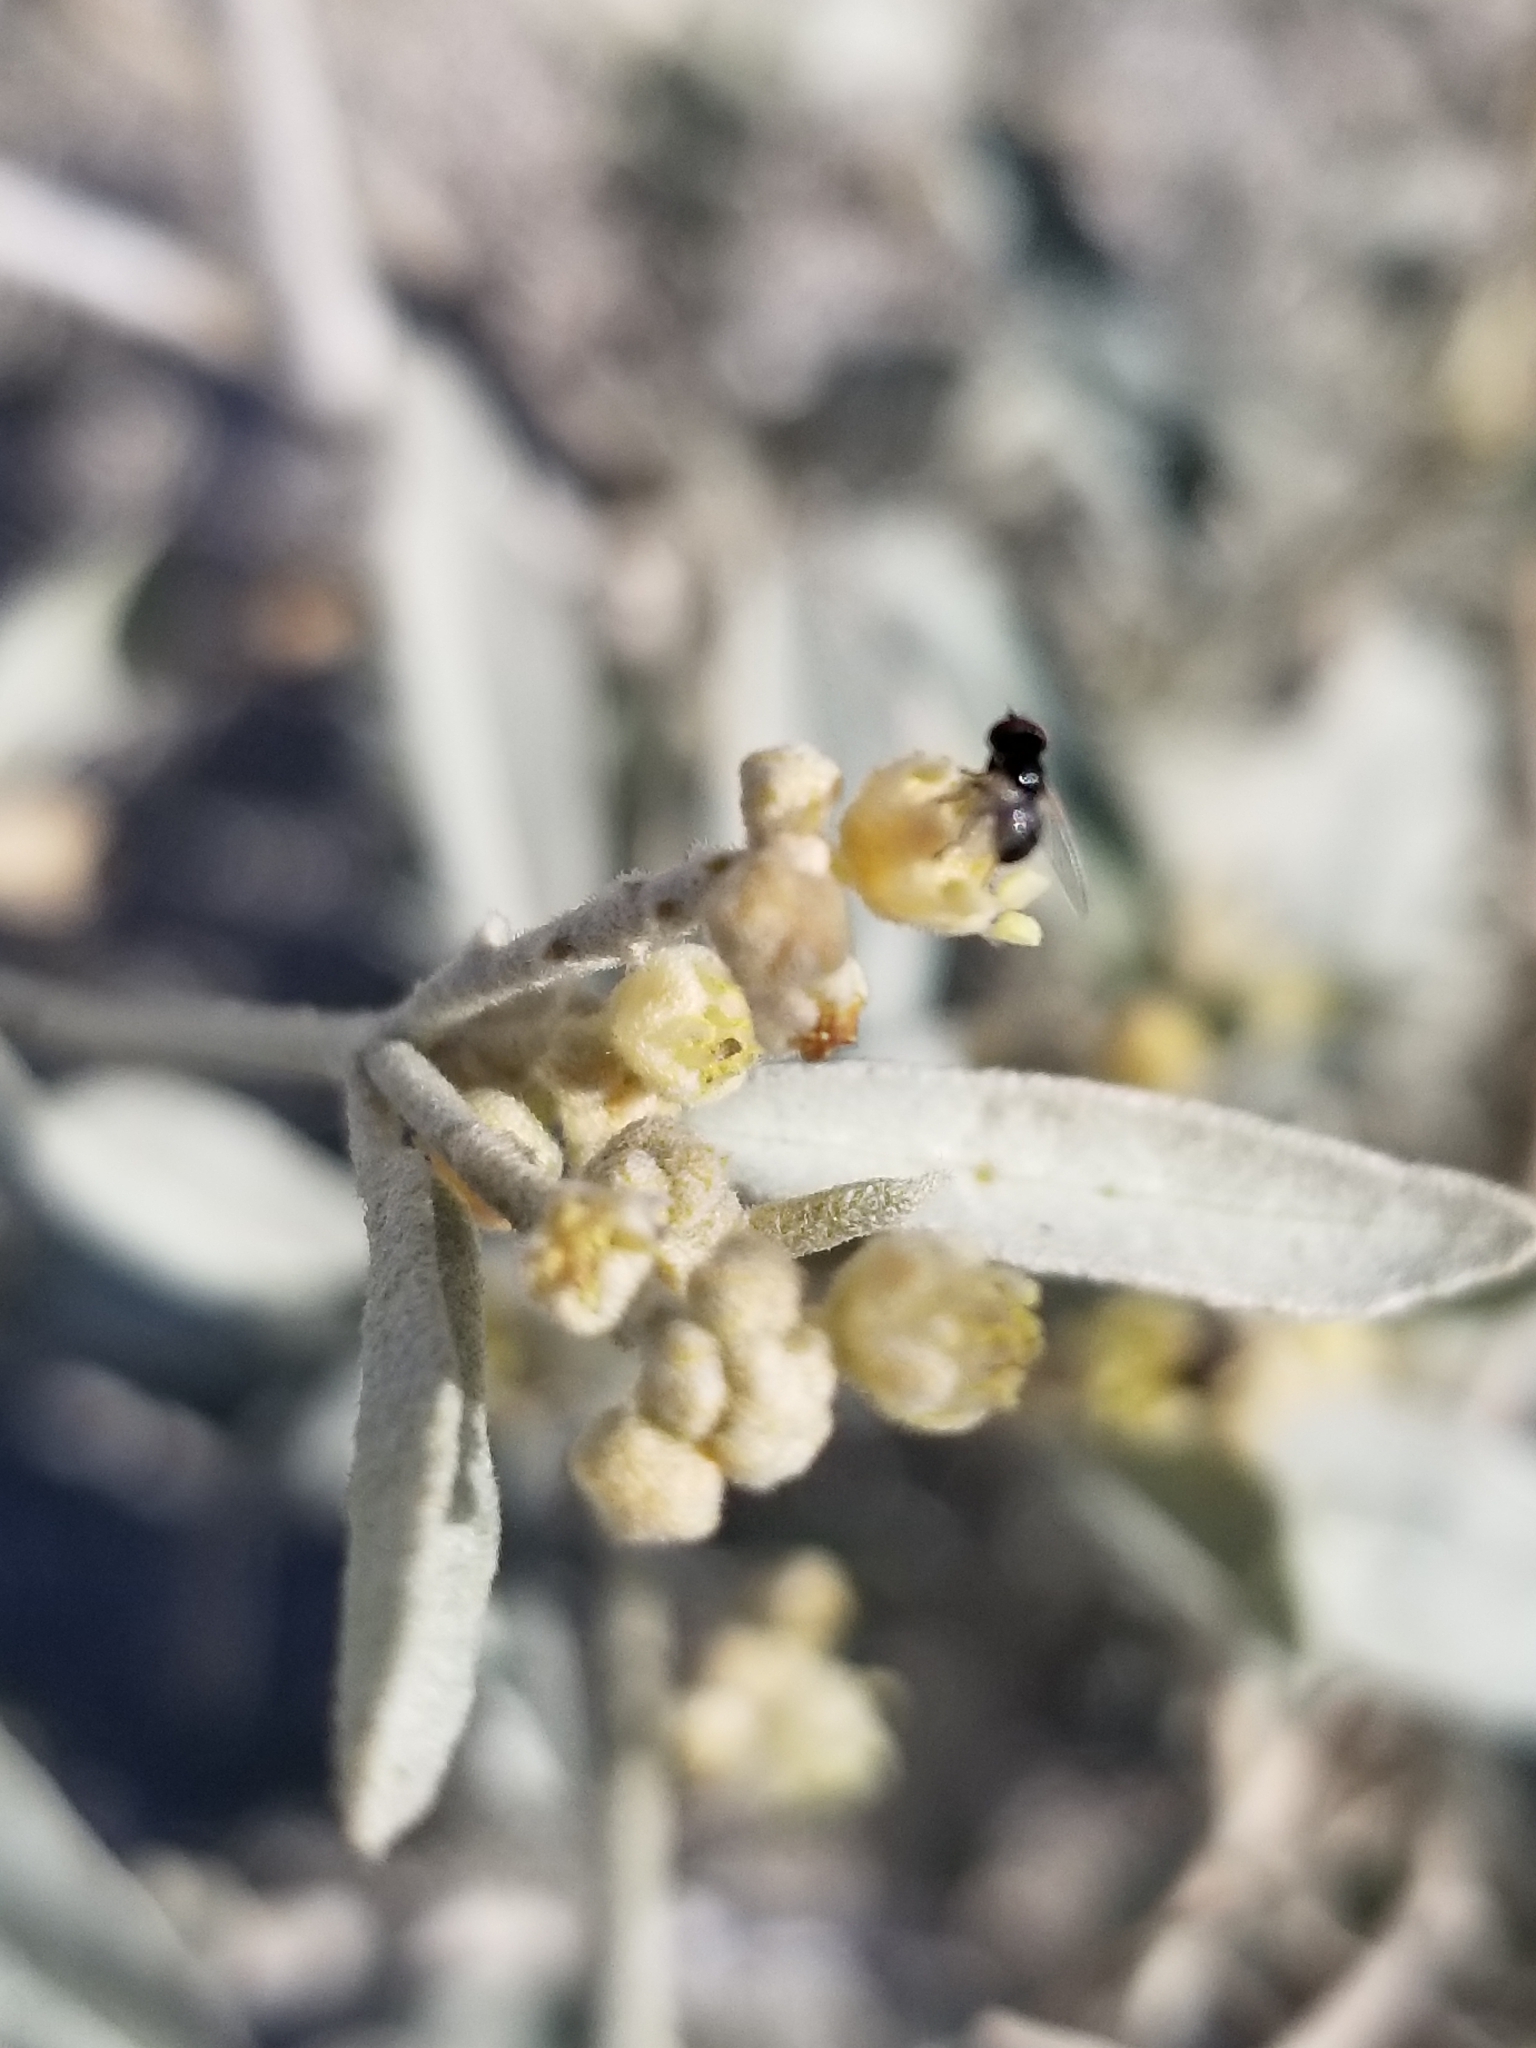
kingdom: Plantae
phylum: Tracheophyta
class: Magnoliopsida
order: Malpighiales
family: Euphorbiaceae
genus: Croton
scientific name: Croton californicus
